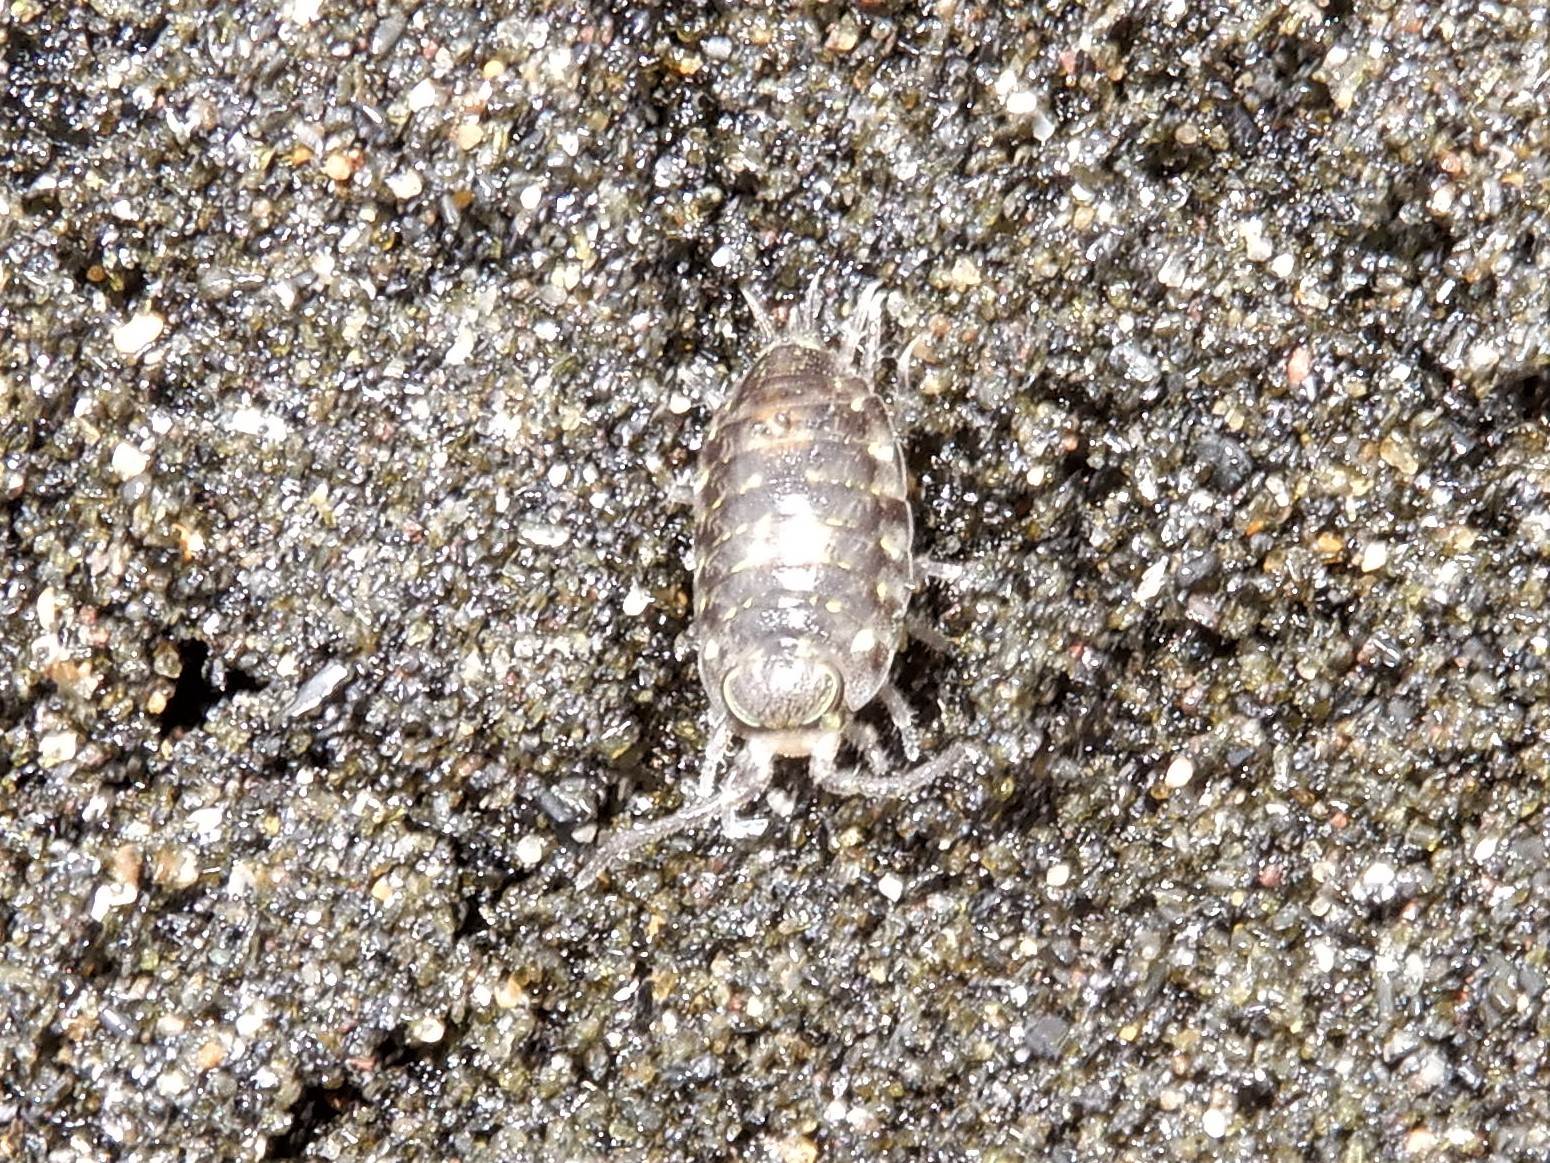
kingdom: Animalia
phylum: Arthropoda
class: Malacostraca
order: Isopoda
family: Scyphacidae
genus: Scyphax
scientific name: Scyphax ornatus
